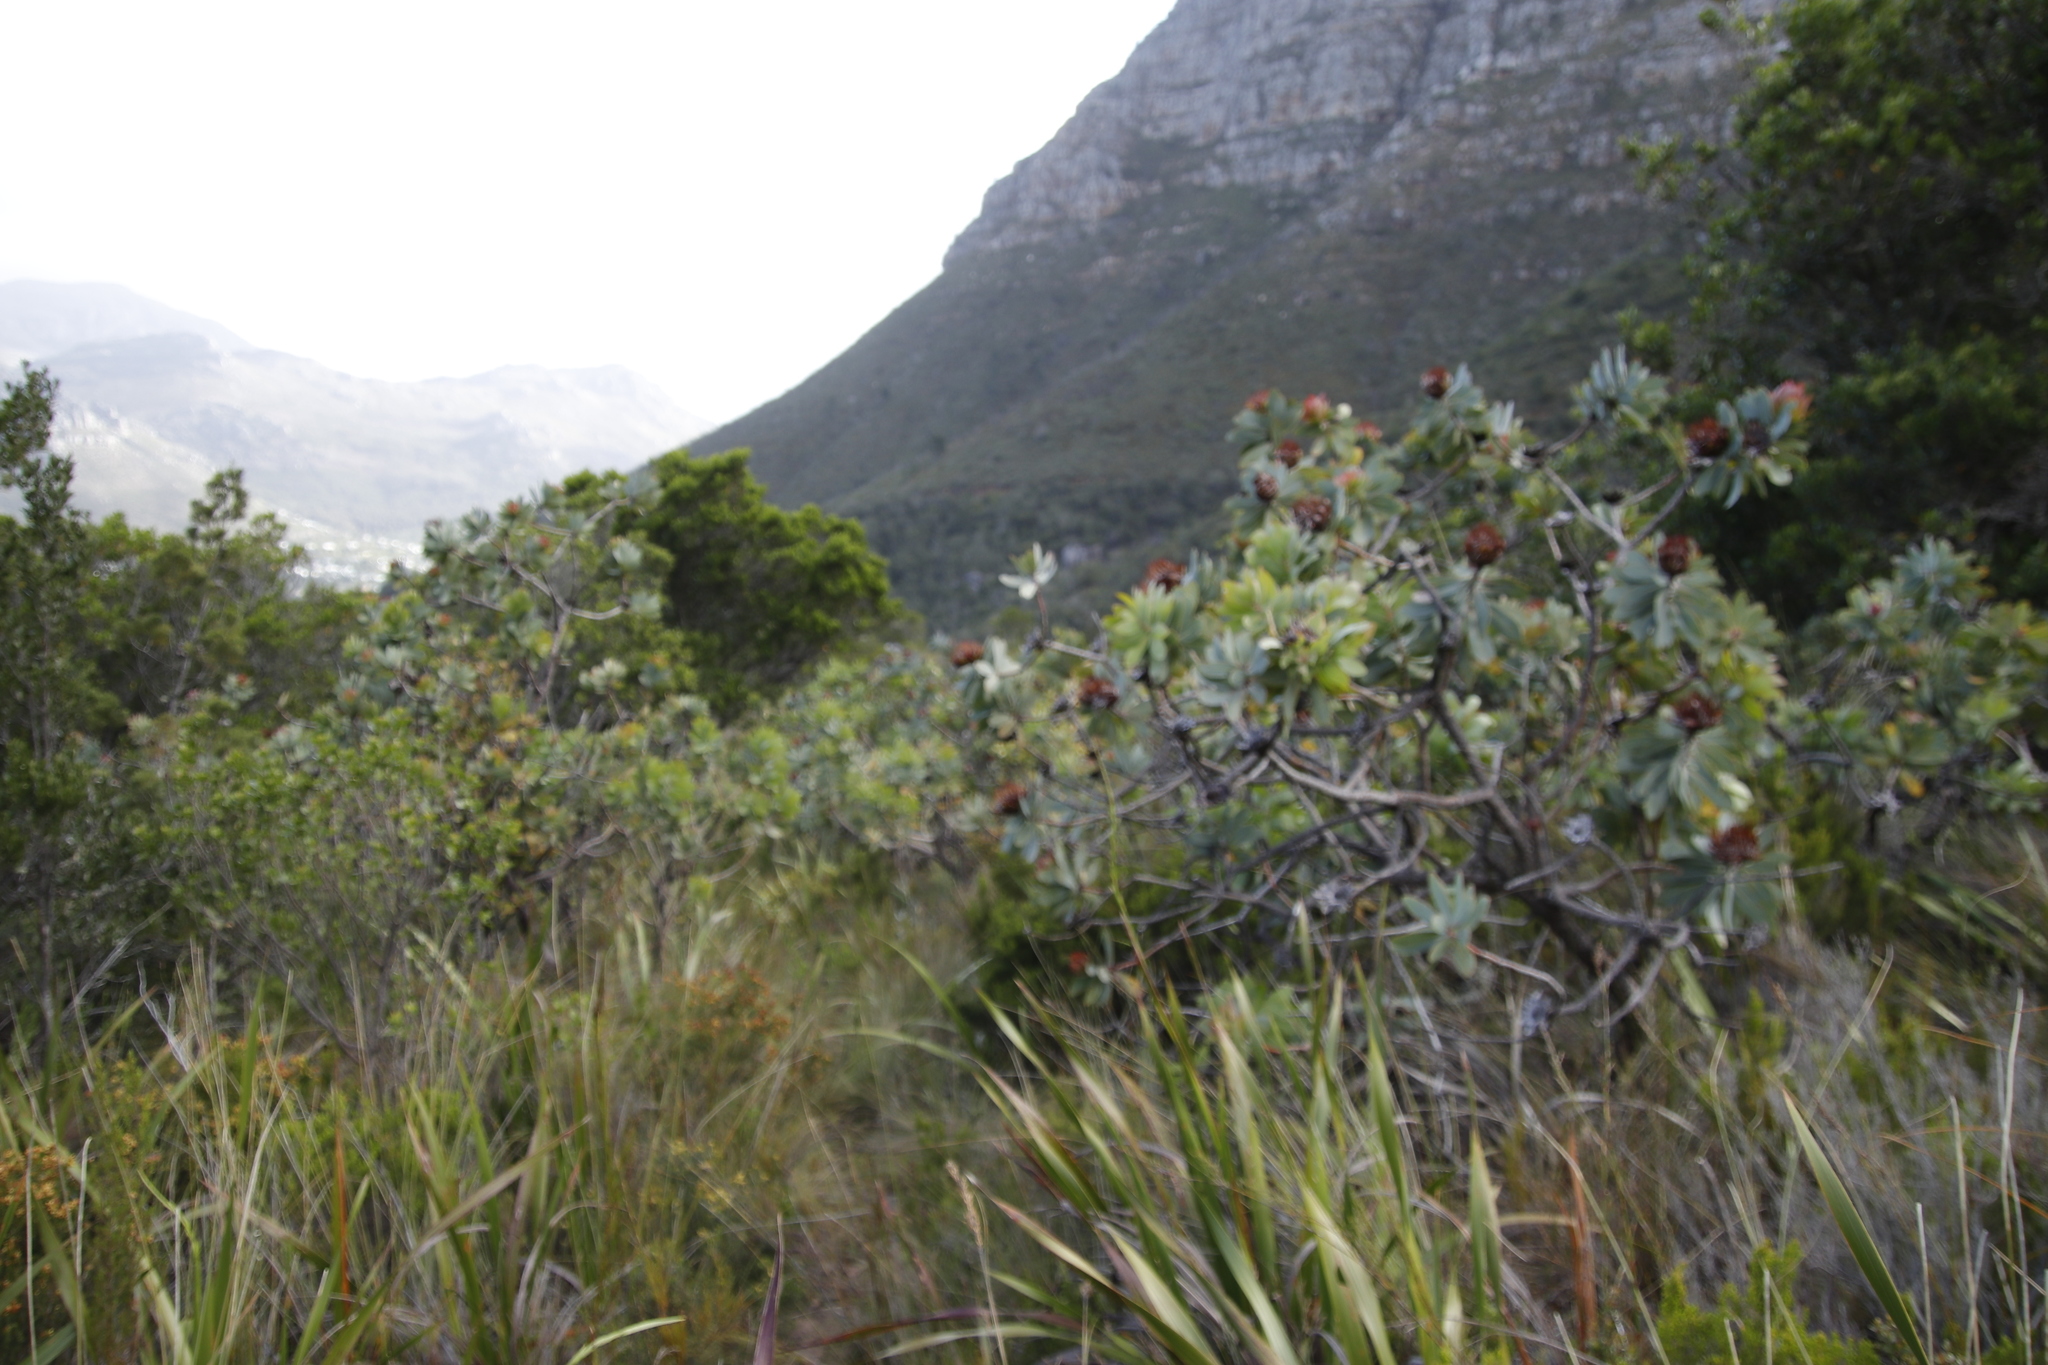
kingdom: Plantae
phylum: Tracheophyta
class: Magnoliopsida
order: Proteales
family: Proteaceae
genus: Protea
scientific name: Protea nitida
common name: Tree protea
